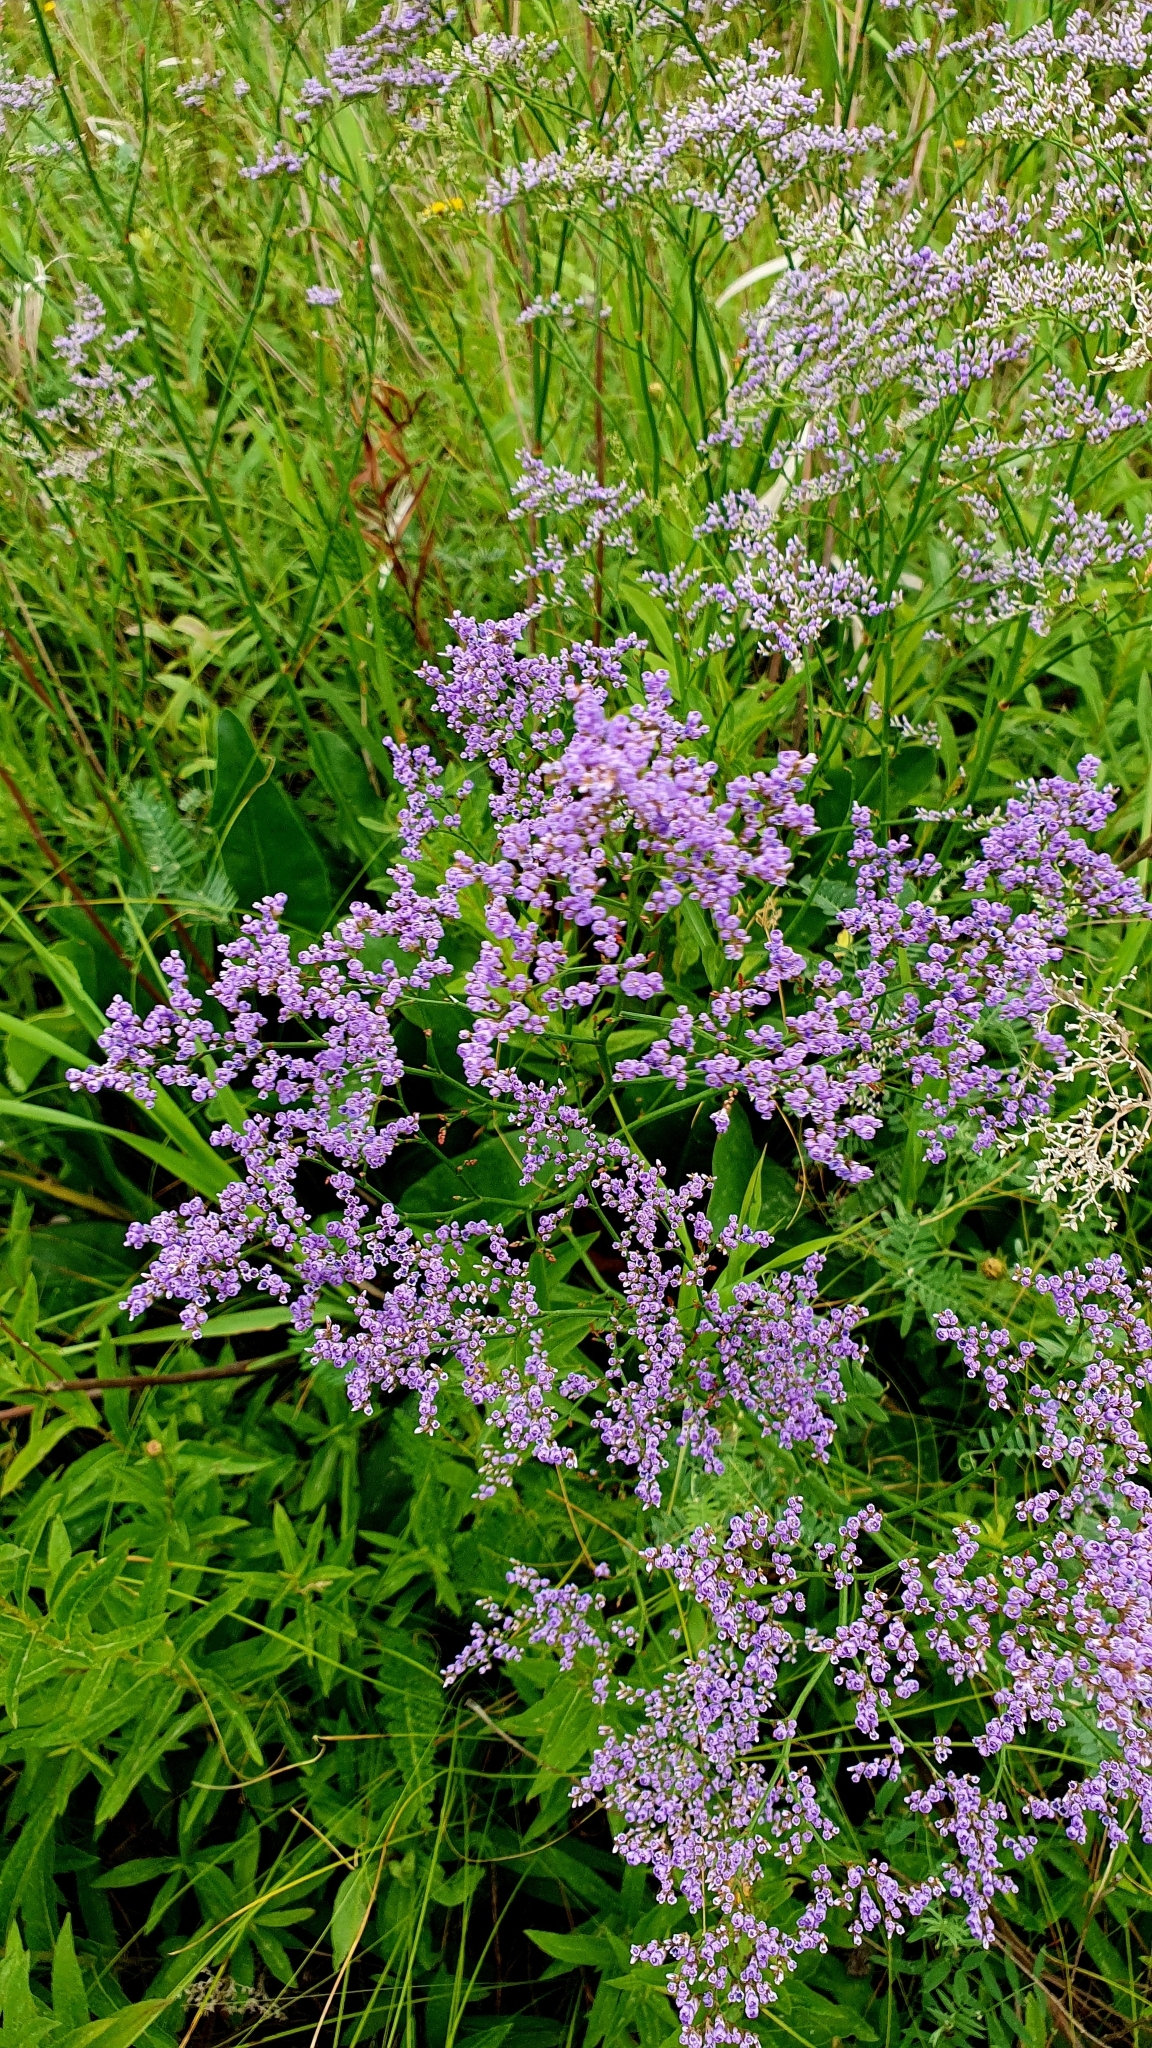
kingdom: Plantae
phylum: Tracheophyta
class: Magnoliopsida
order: Caryophyllales
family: Plumbaginaceae
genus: Limonium
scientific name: Limonium gmelini
